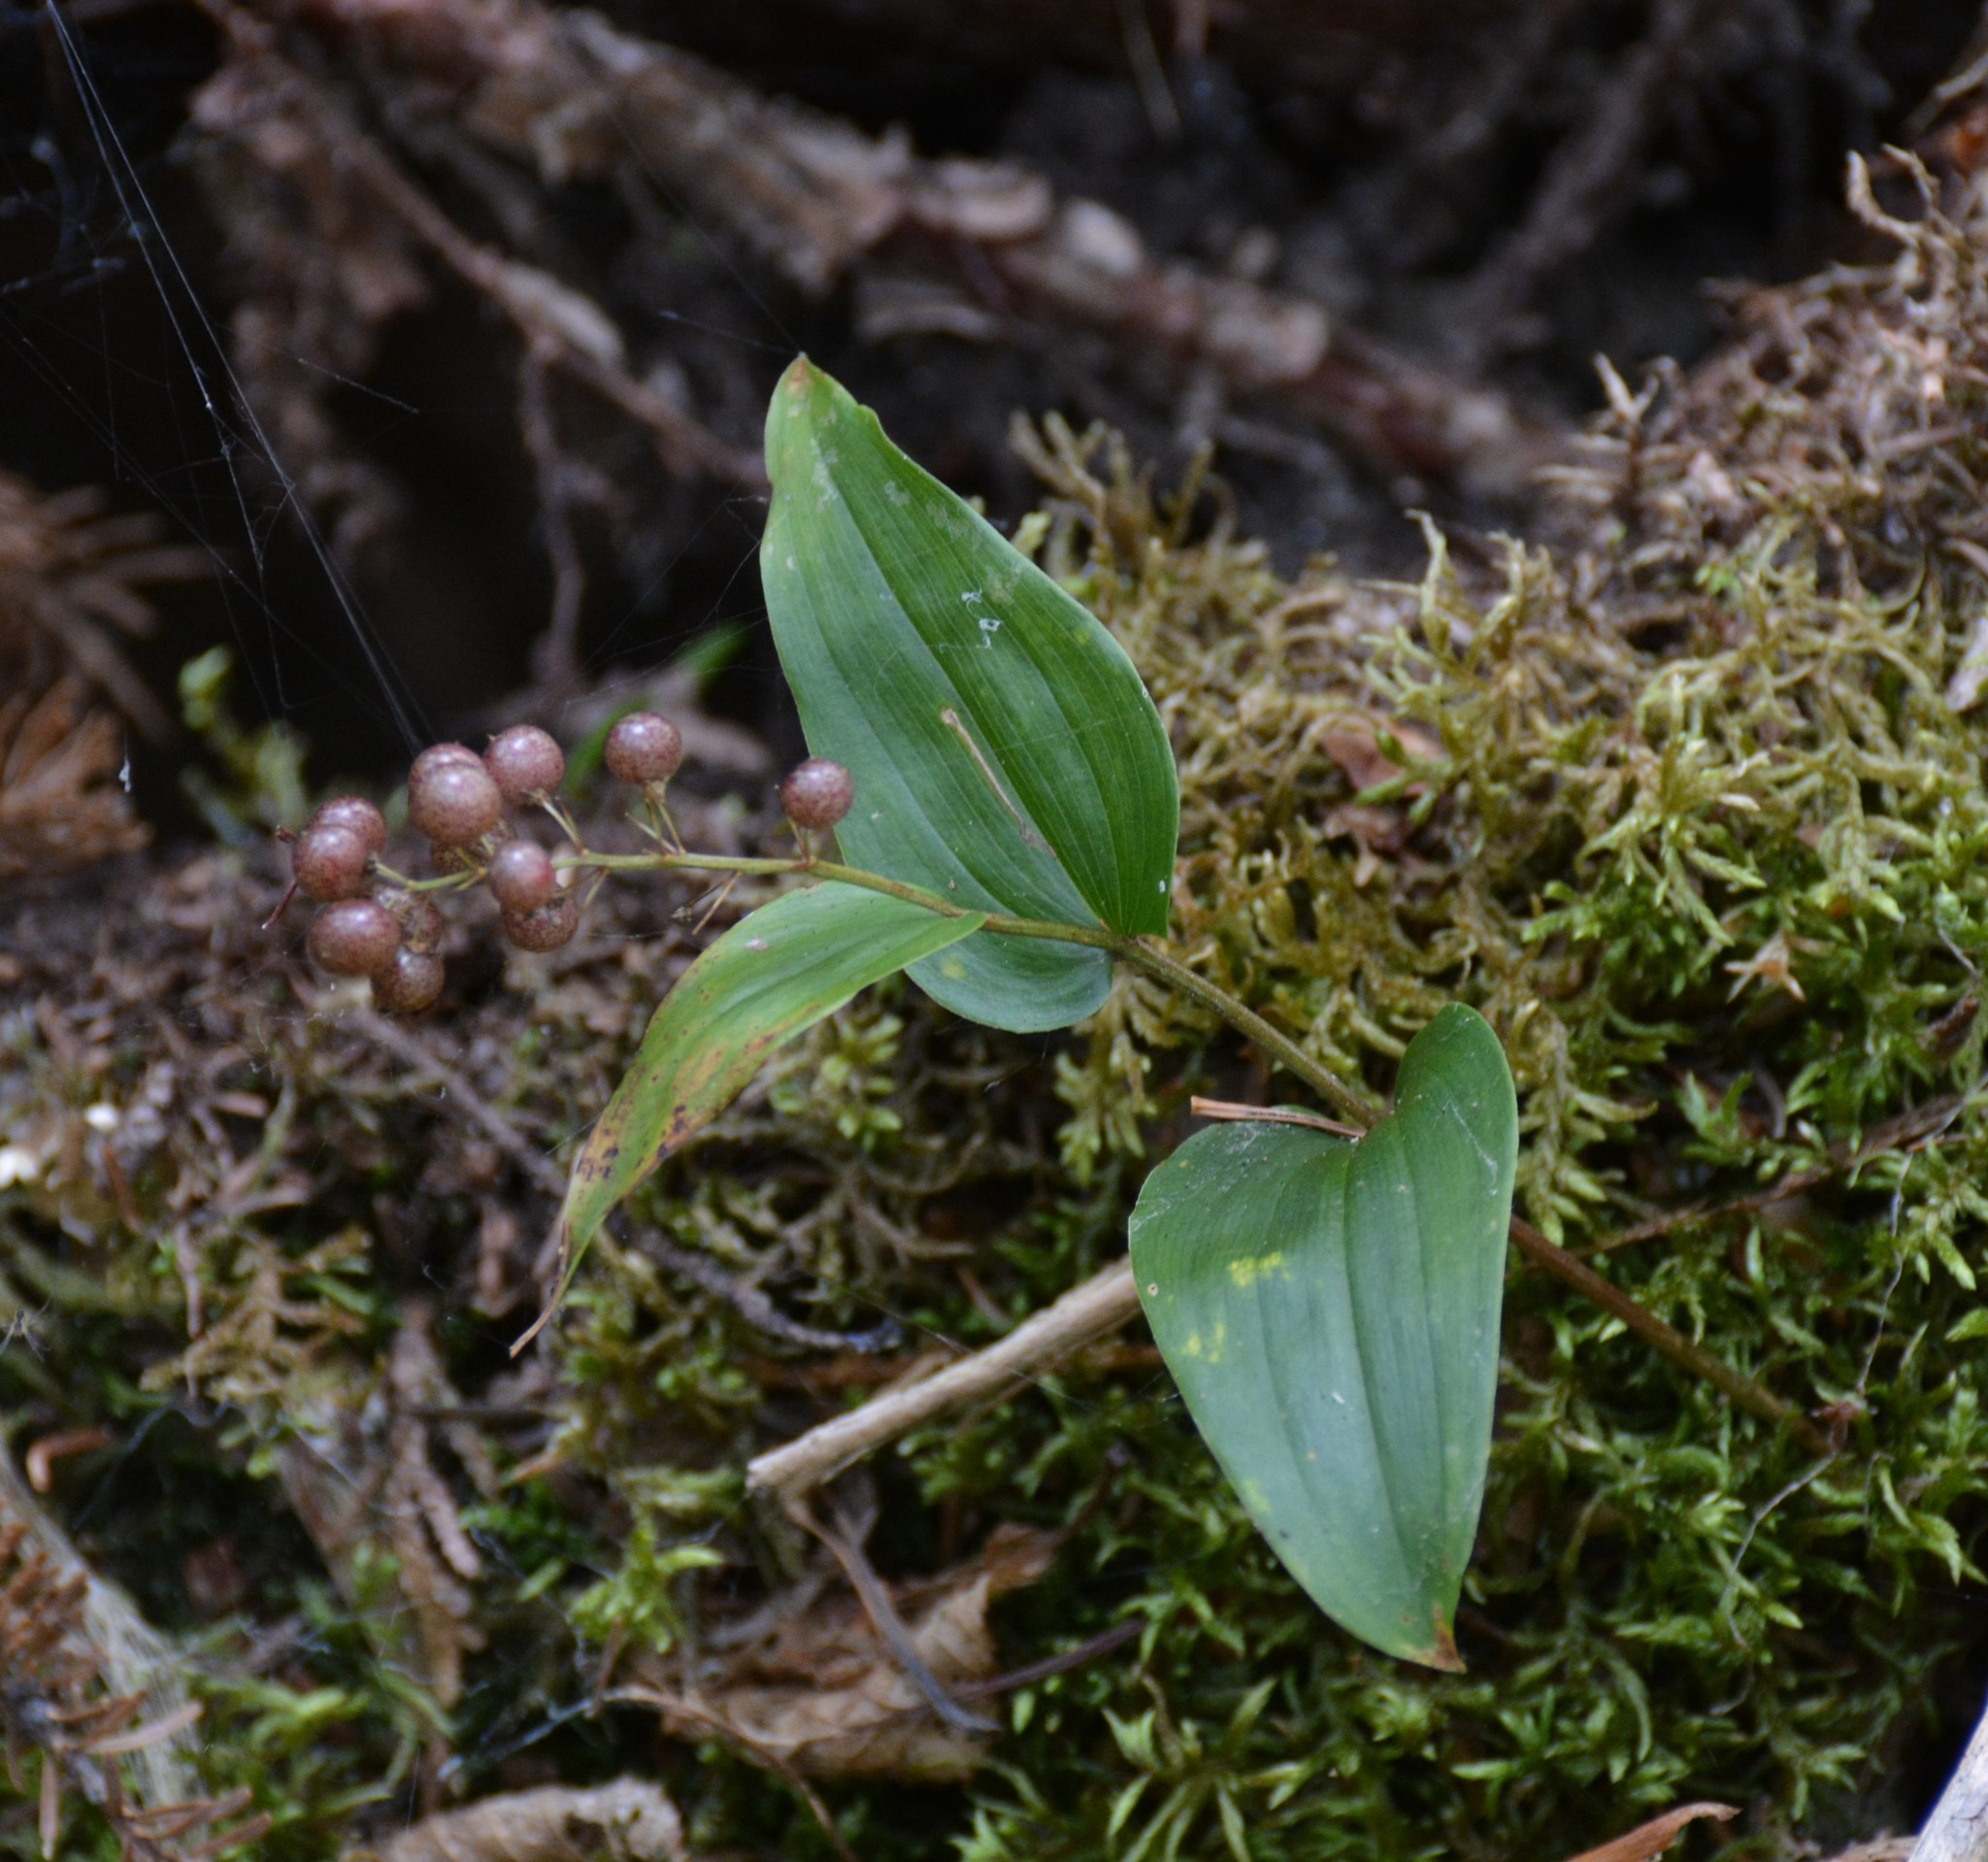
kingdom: Plantae
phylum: Tracheophyta
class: Liliopsida
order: Asparagales
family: Asparagaceae
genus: Maianthemum
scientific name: Maianthemum canadense
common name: False lily-of-the-valley
